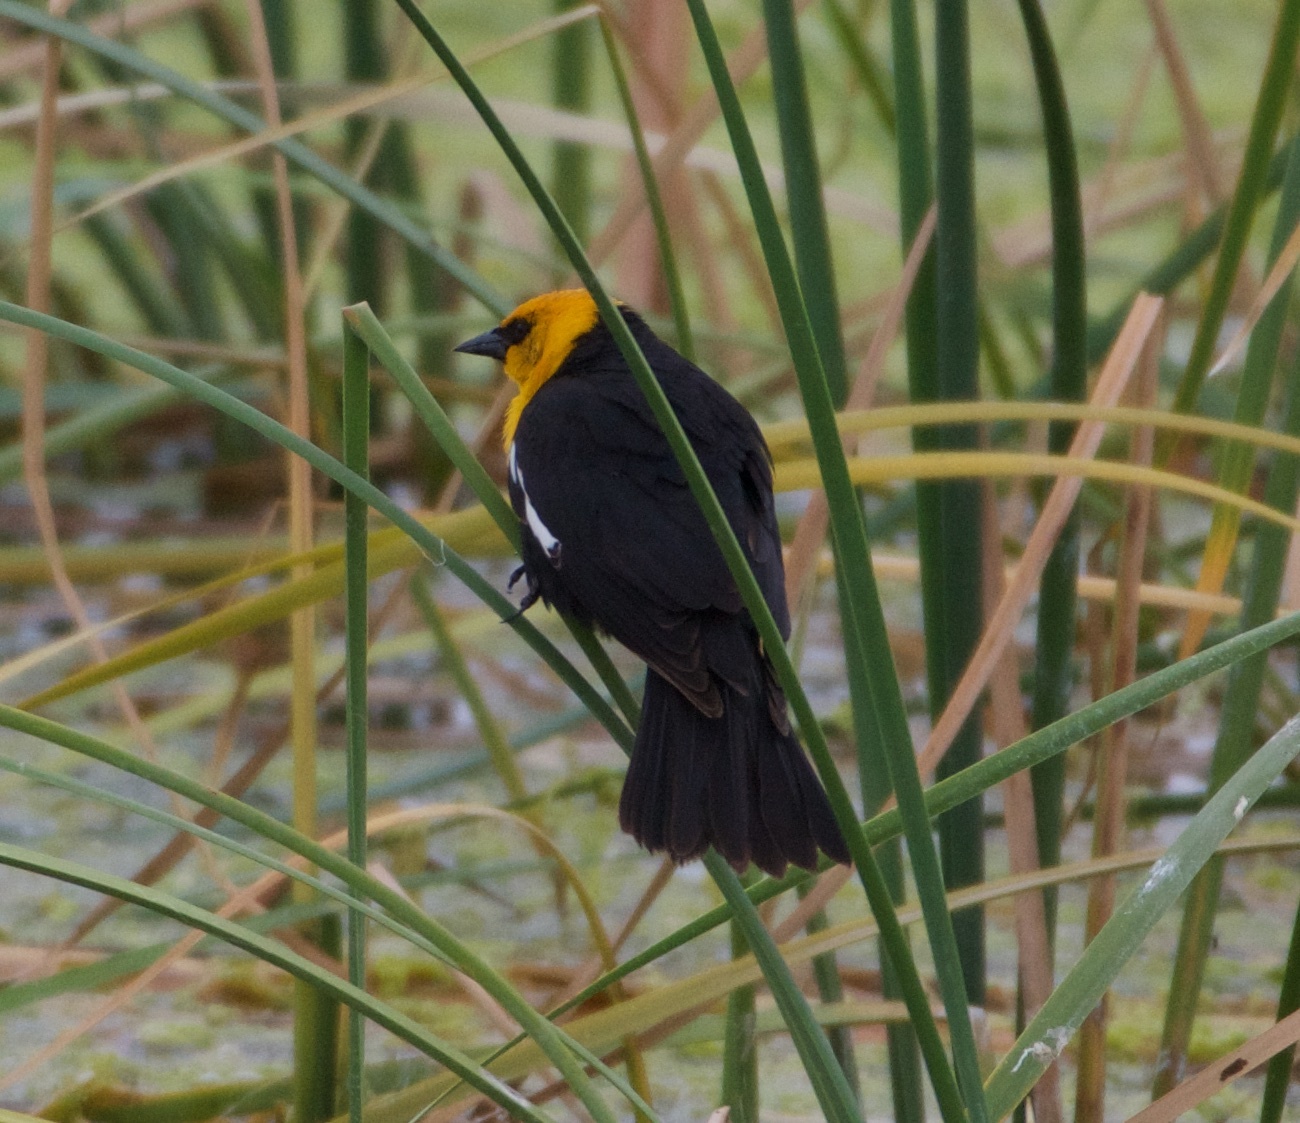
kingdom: Animalia
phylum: Chordata
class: Aves
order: Passeriformes
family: Icteridae
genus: Xanthocephalus
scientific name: Xanthocephalus xanthocephalus
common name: Yellow-headed blackbird
